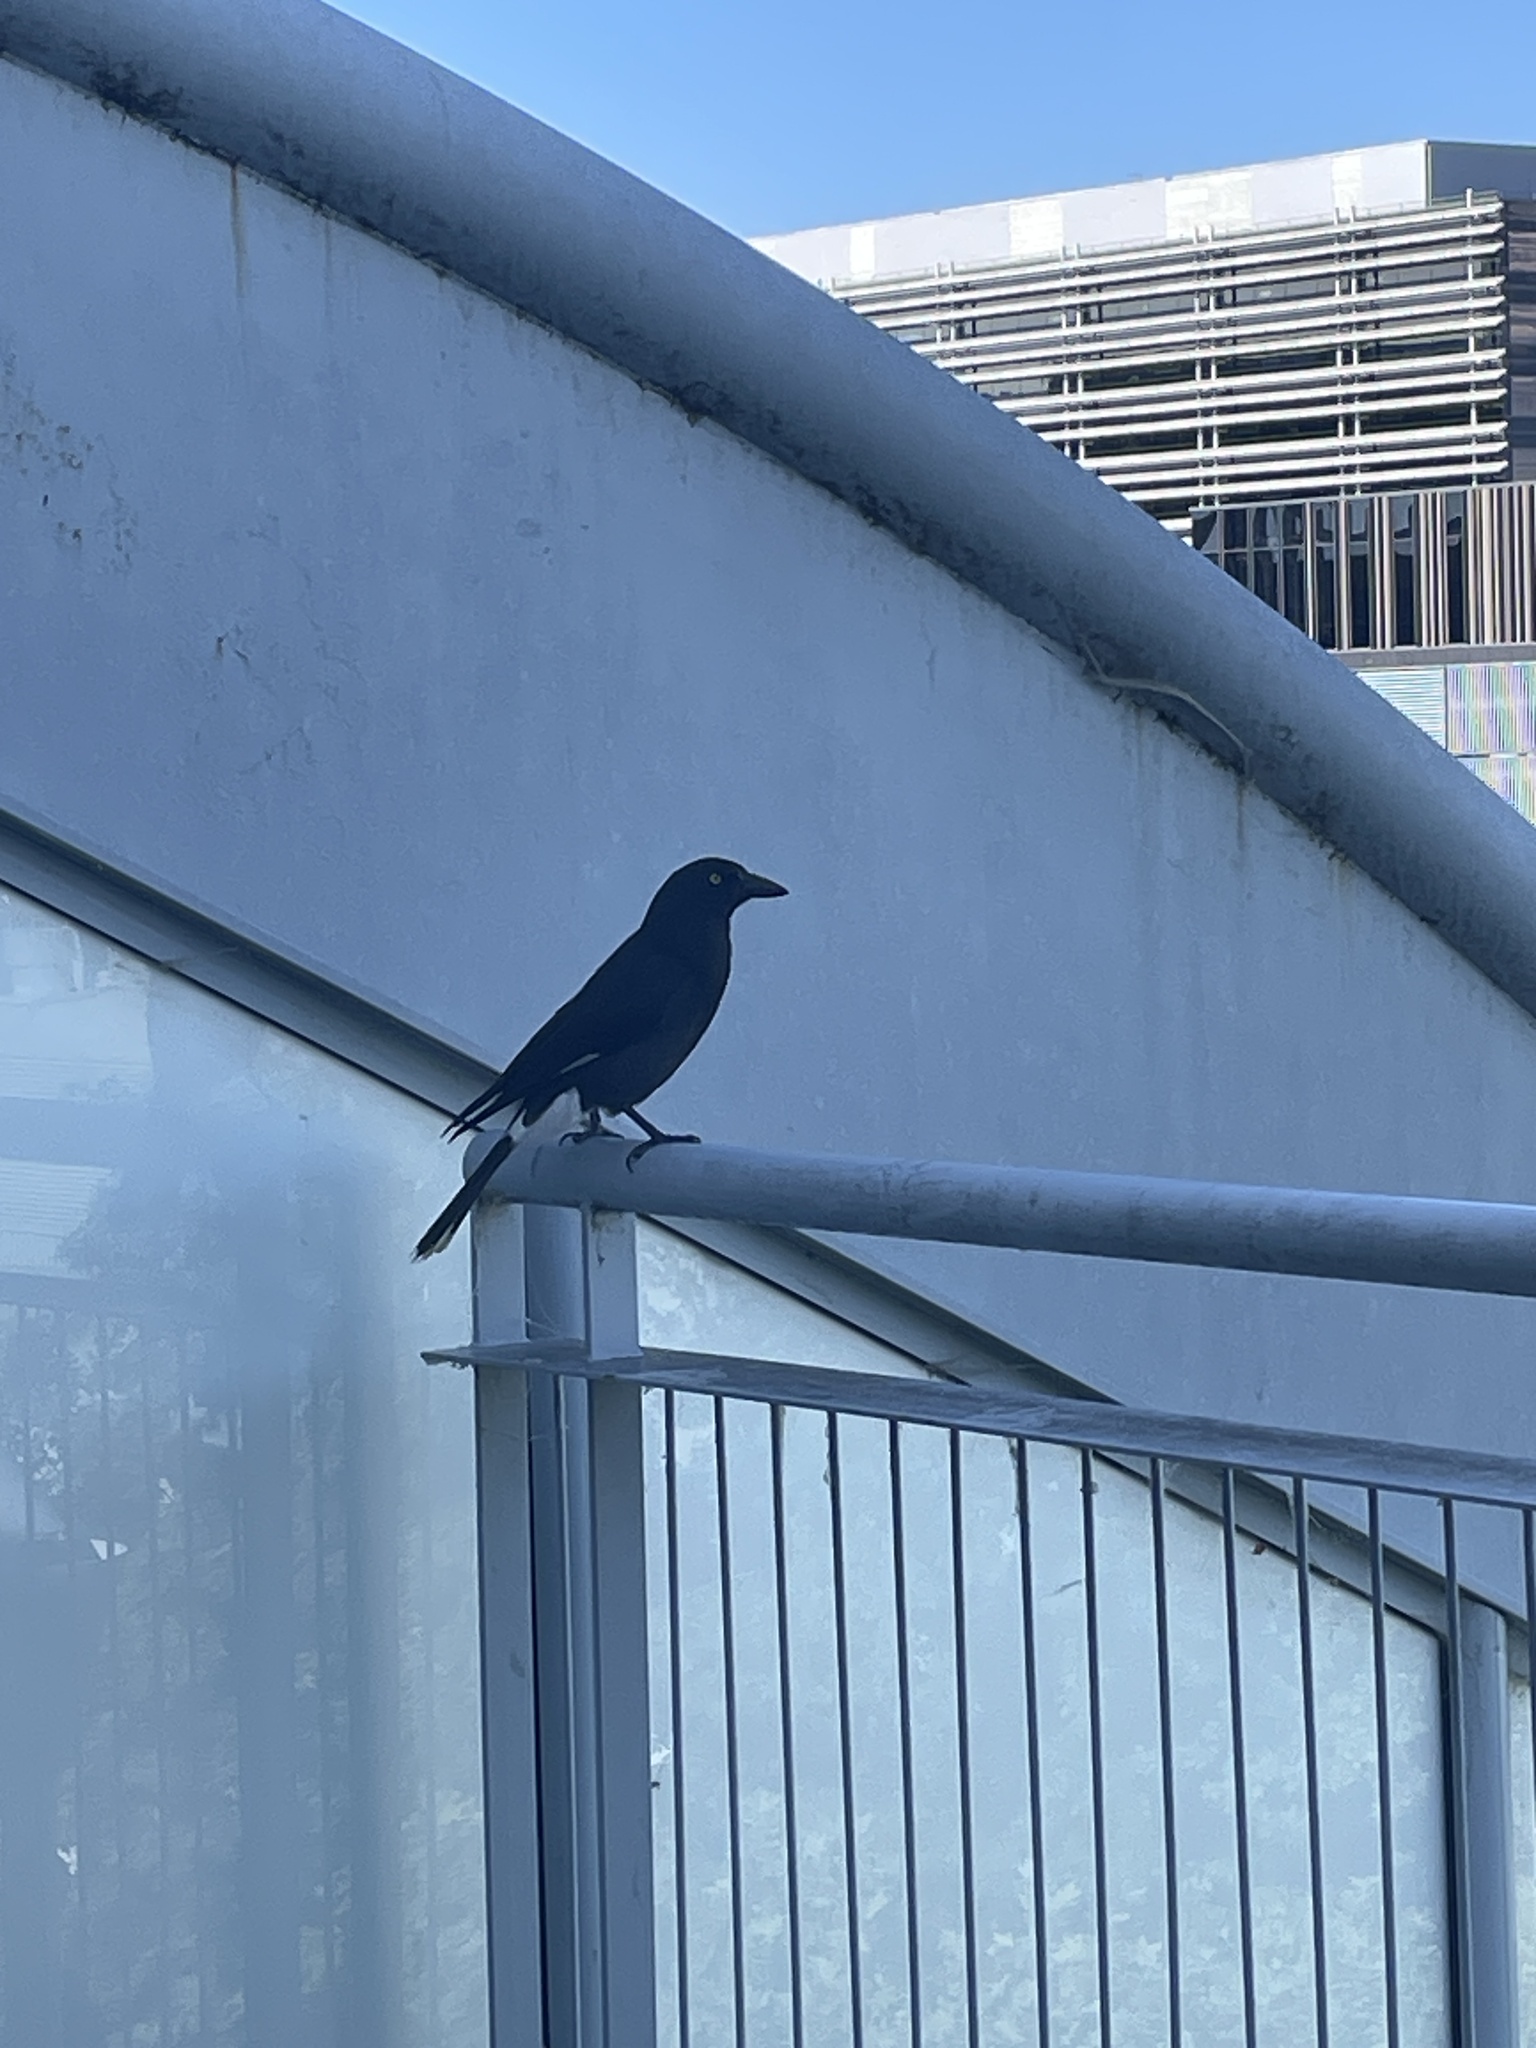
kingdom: Animalia
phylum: Chordata
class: Aves
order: Passeriformes
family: Cracticidae
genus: Strepera
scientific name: Strepera graculina
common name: Pied currawong
